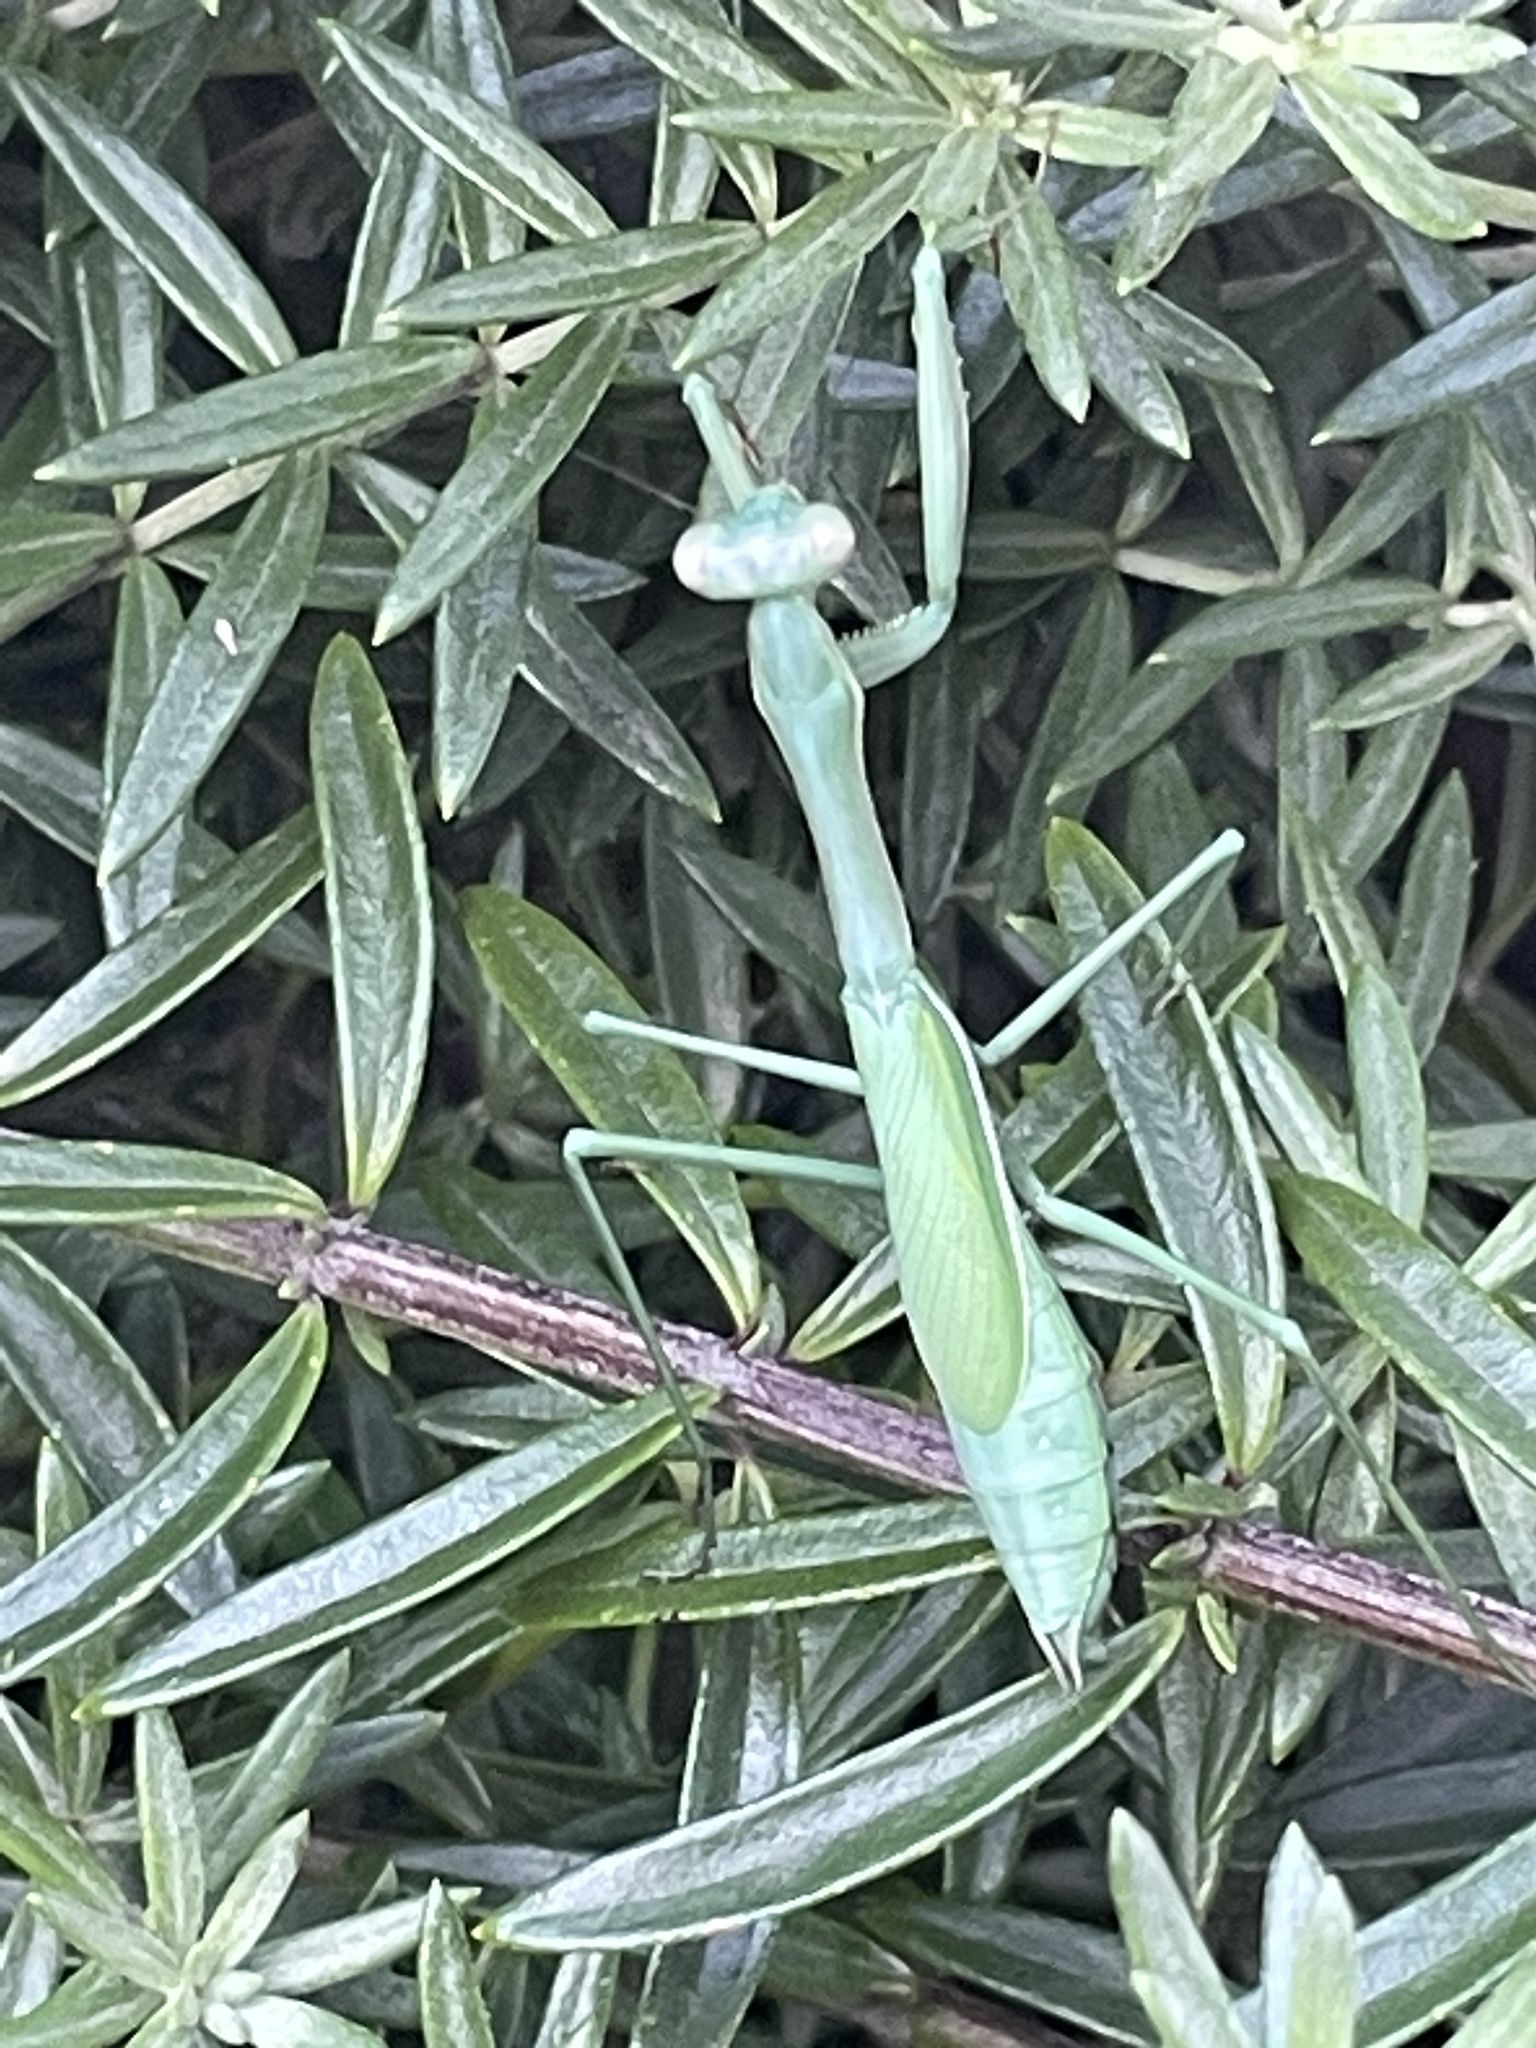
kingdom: Animalia
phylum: Arthropoda
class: Insecta
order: Mantodea
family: Mantidae
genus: Pseudomantis
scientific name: Pseudomantis albofimbriata
